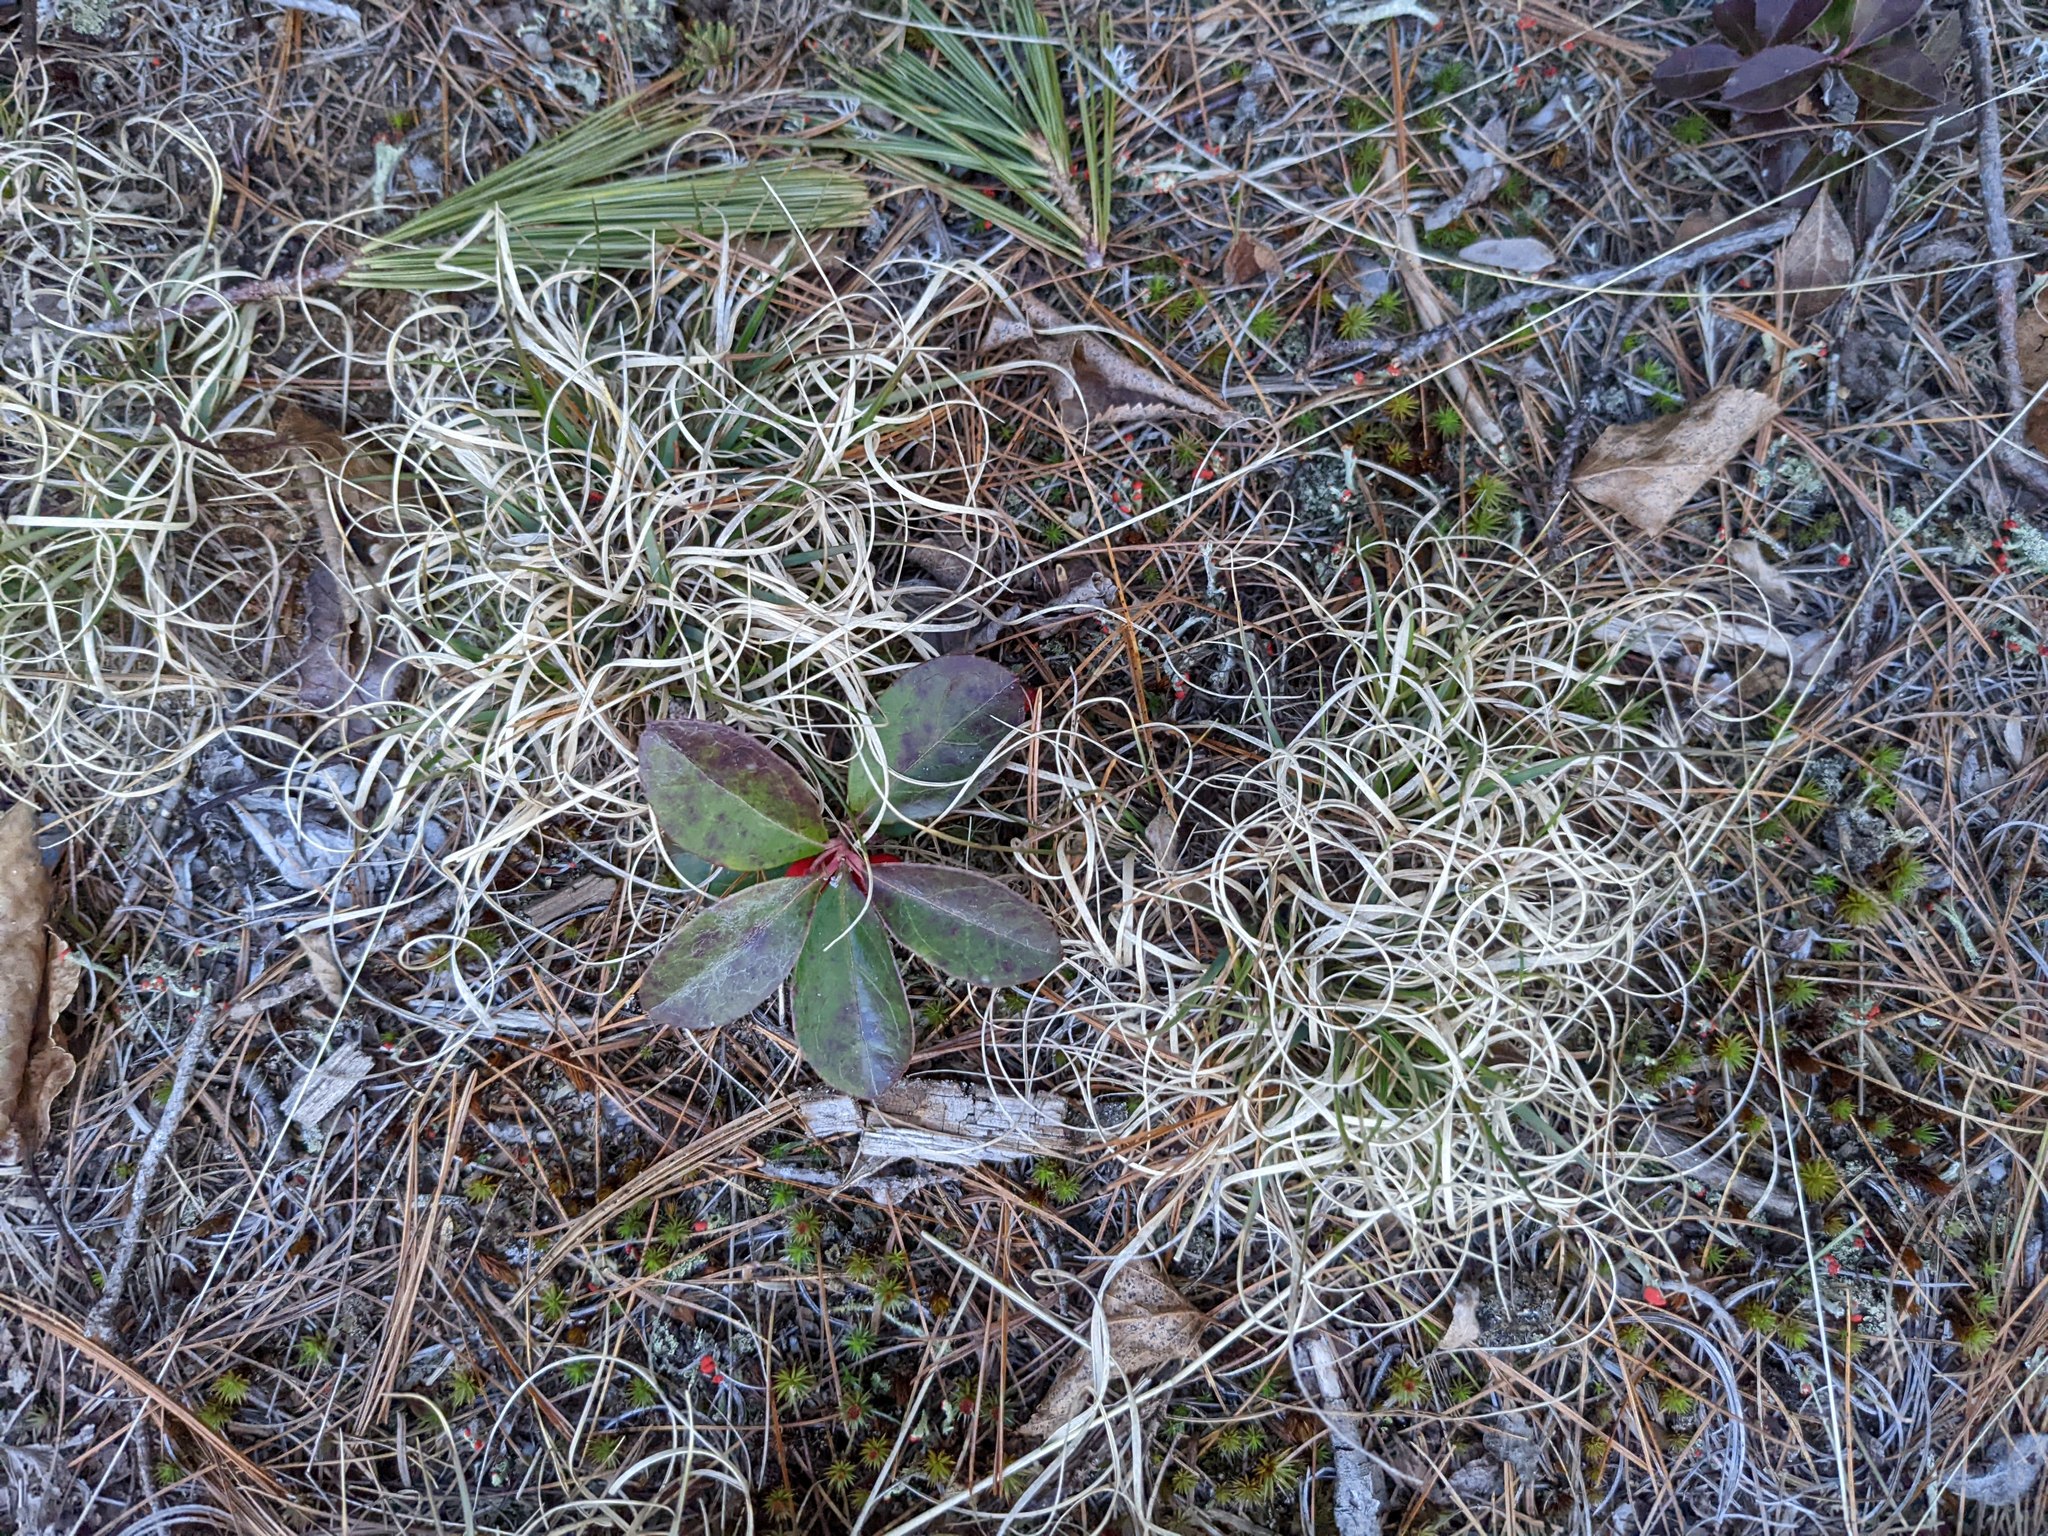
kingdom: Plantae
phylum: Tracheophyta
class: Liliopsida
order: Poales
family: Poaceae
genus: Danthonia
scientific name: Danthonia spicata
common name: Common wild oatgrass
